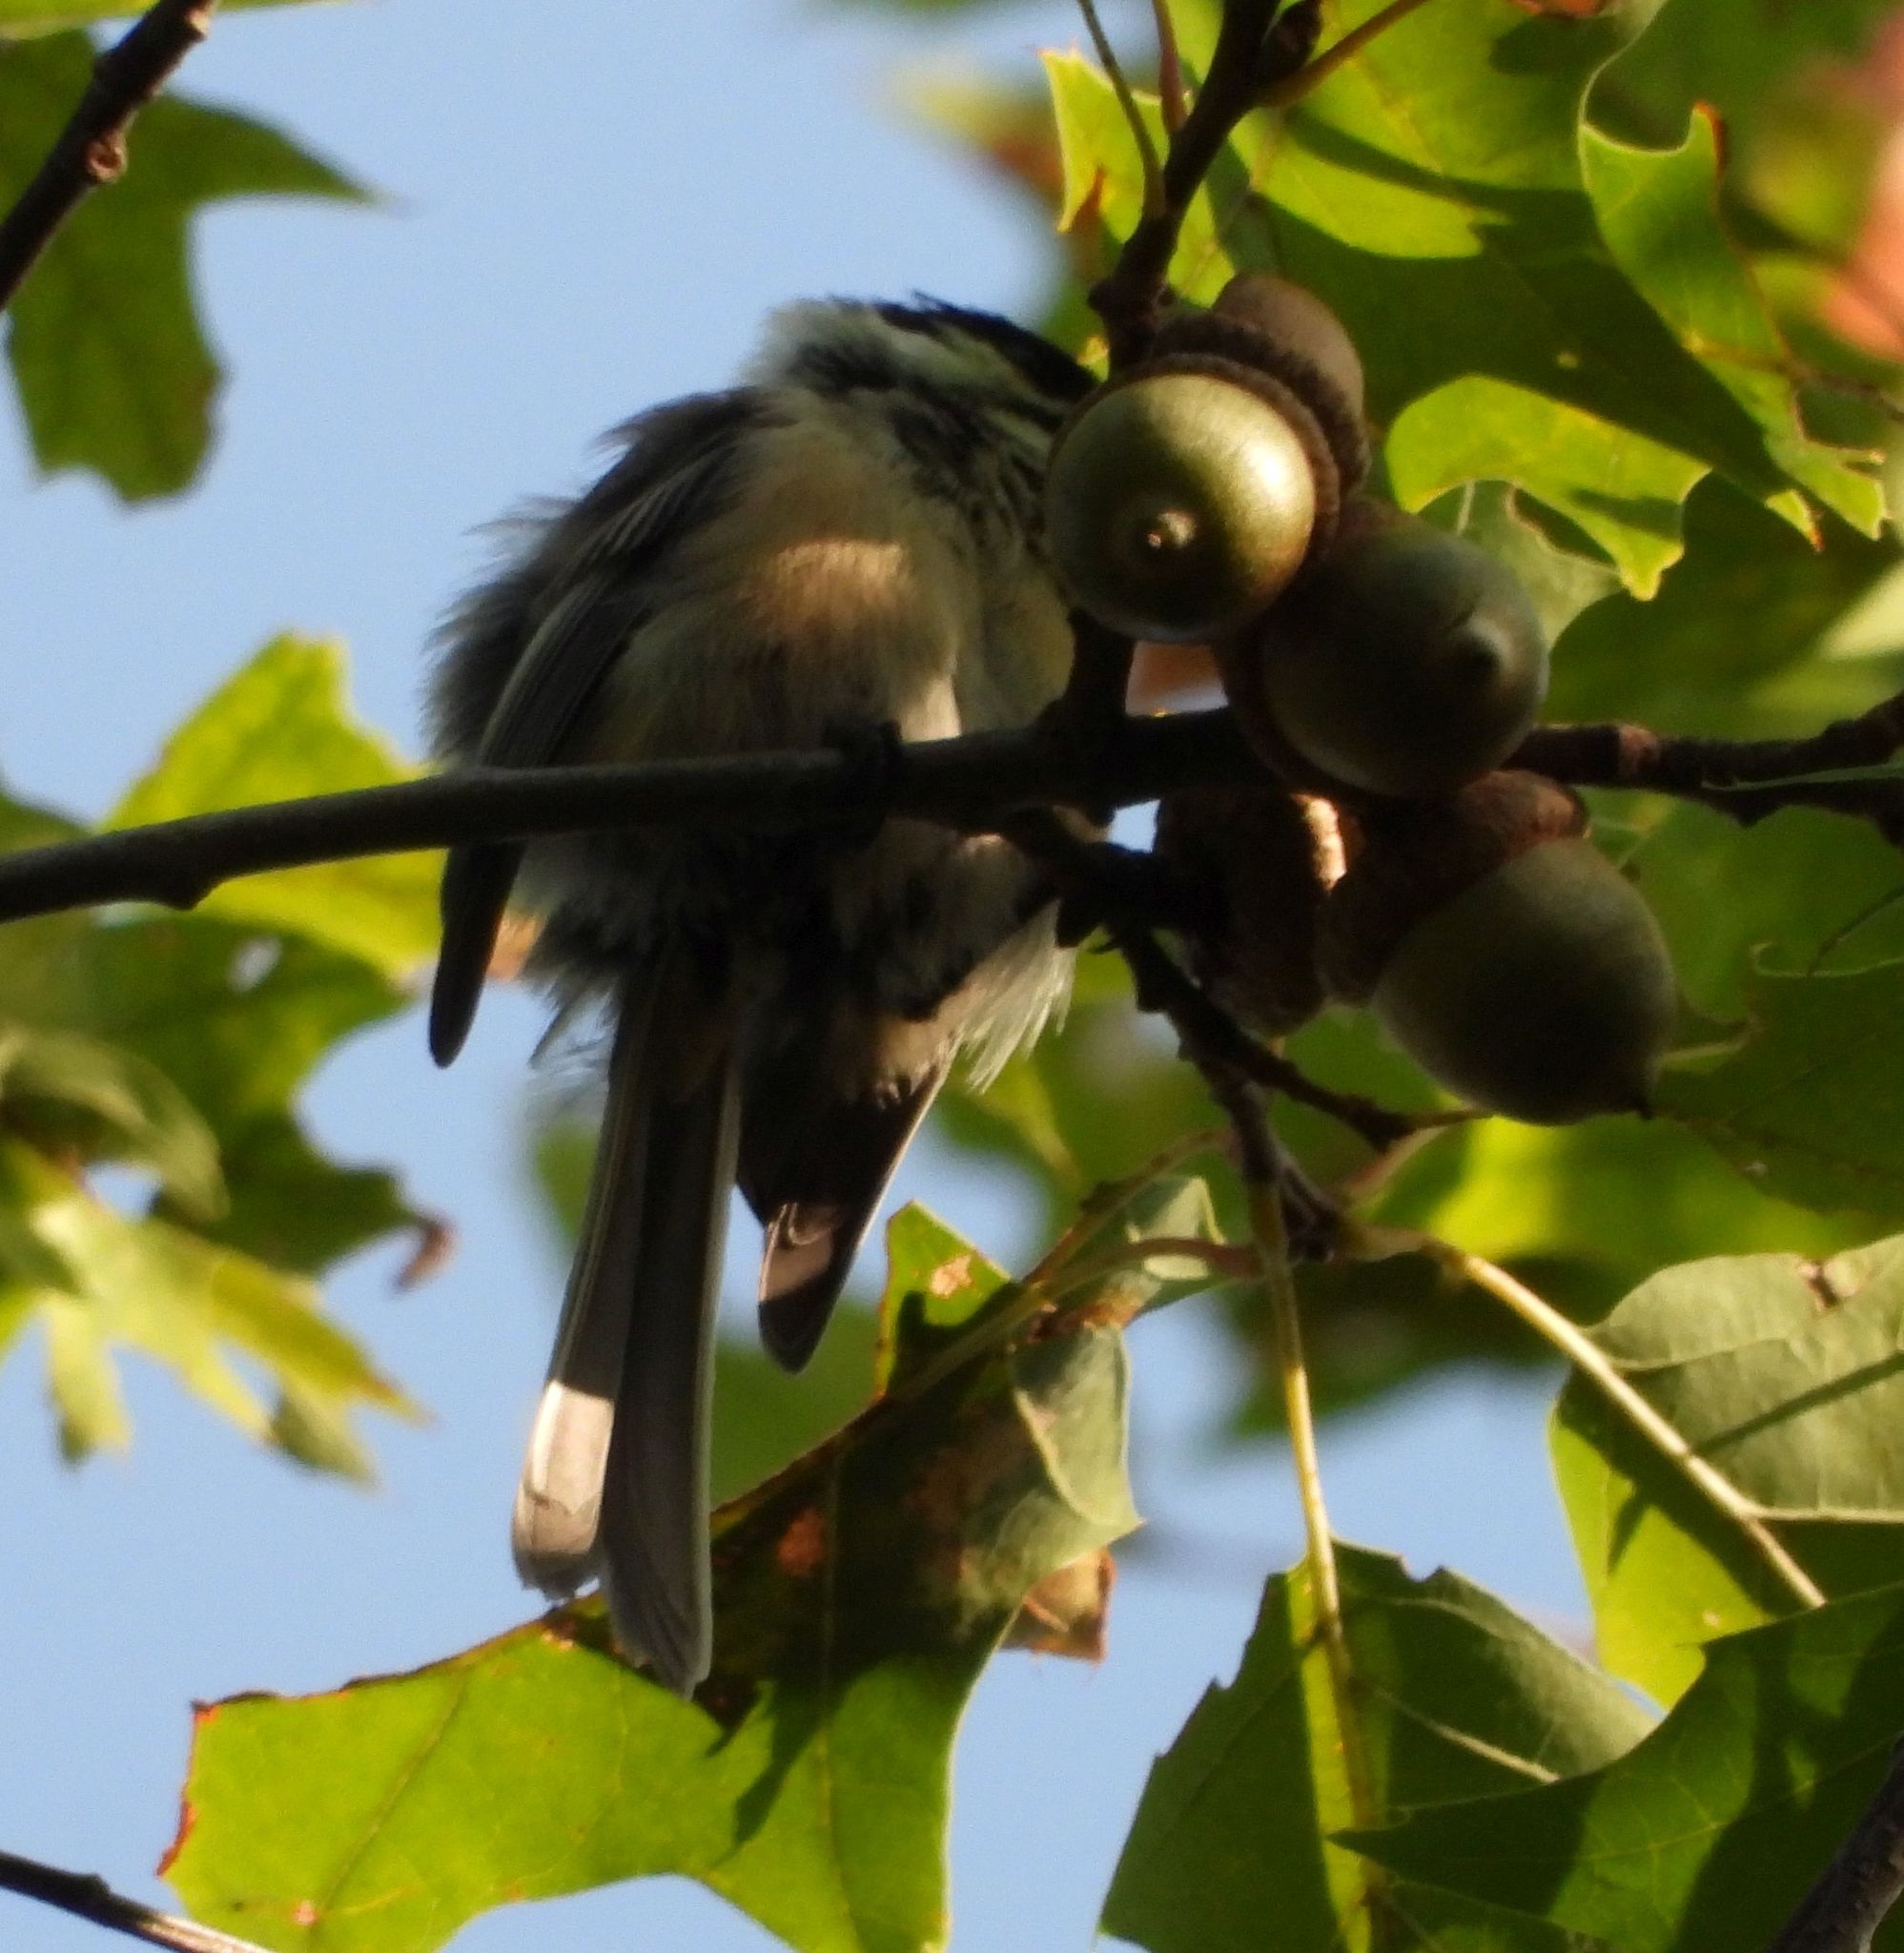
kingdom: Animalia
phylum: Chordata
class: Aves
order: Passeriformes
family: Paridae
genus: Poecile
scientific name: Poecile atricapillus
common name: Black-capped chickadee
